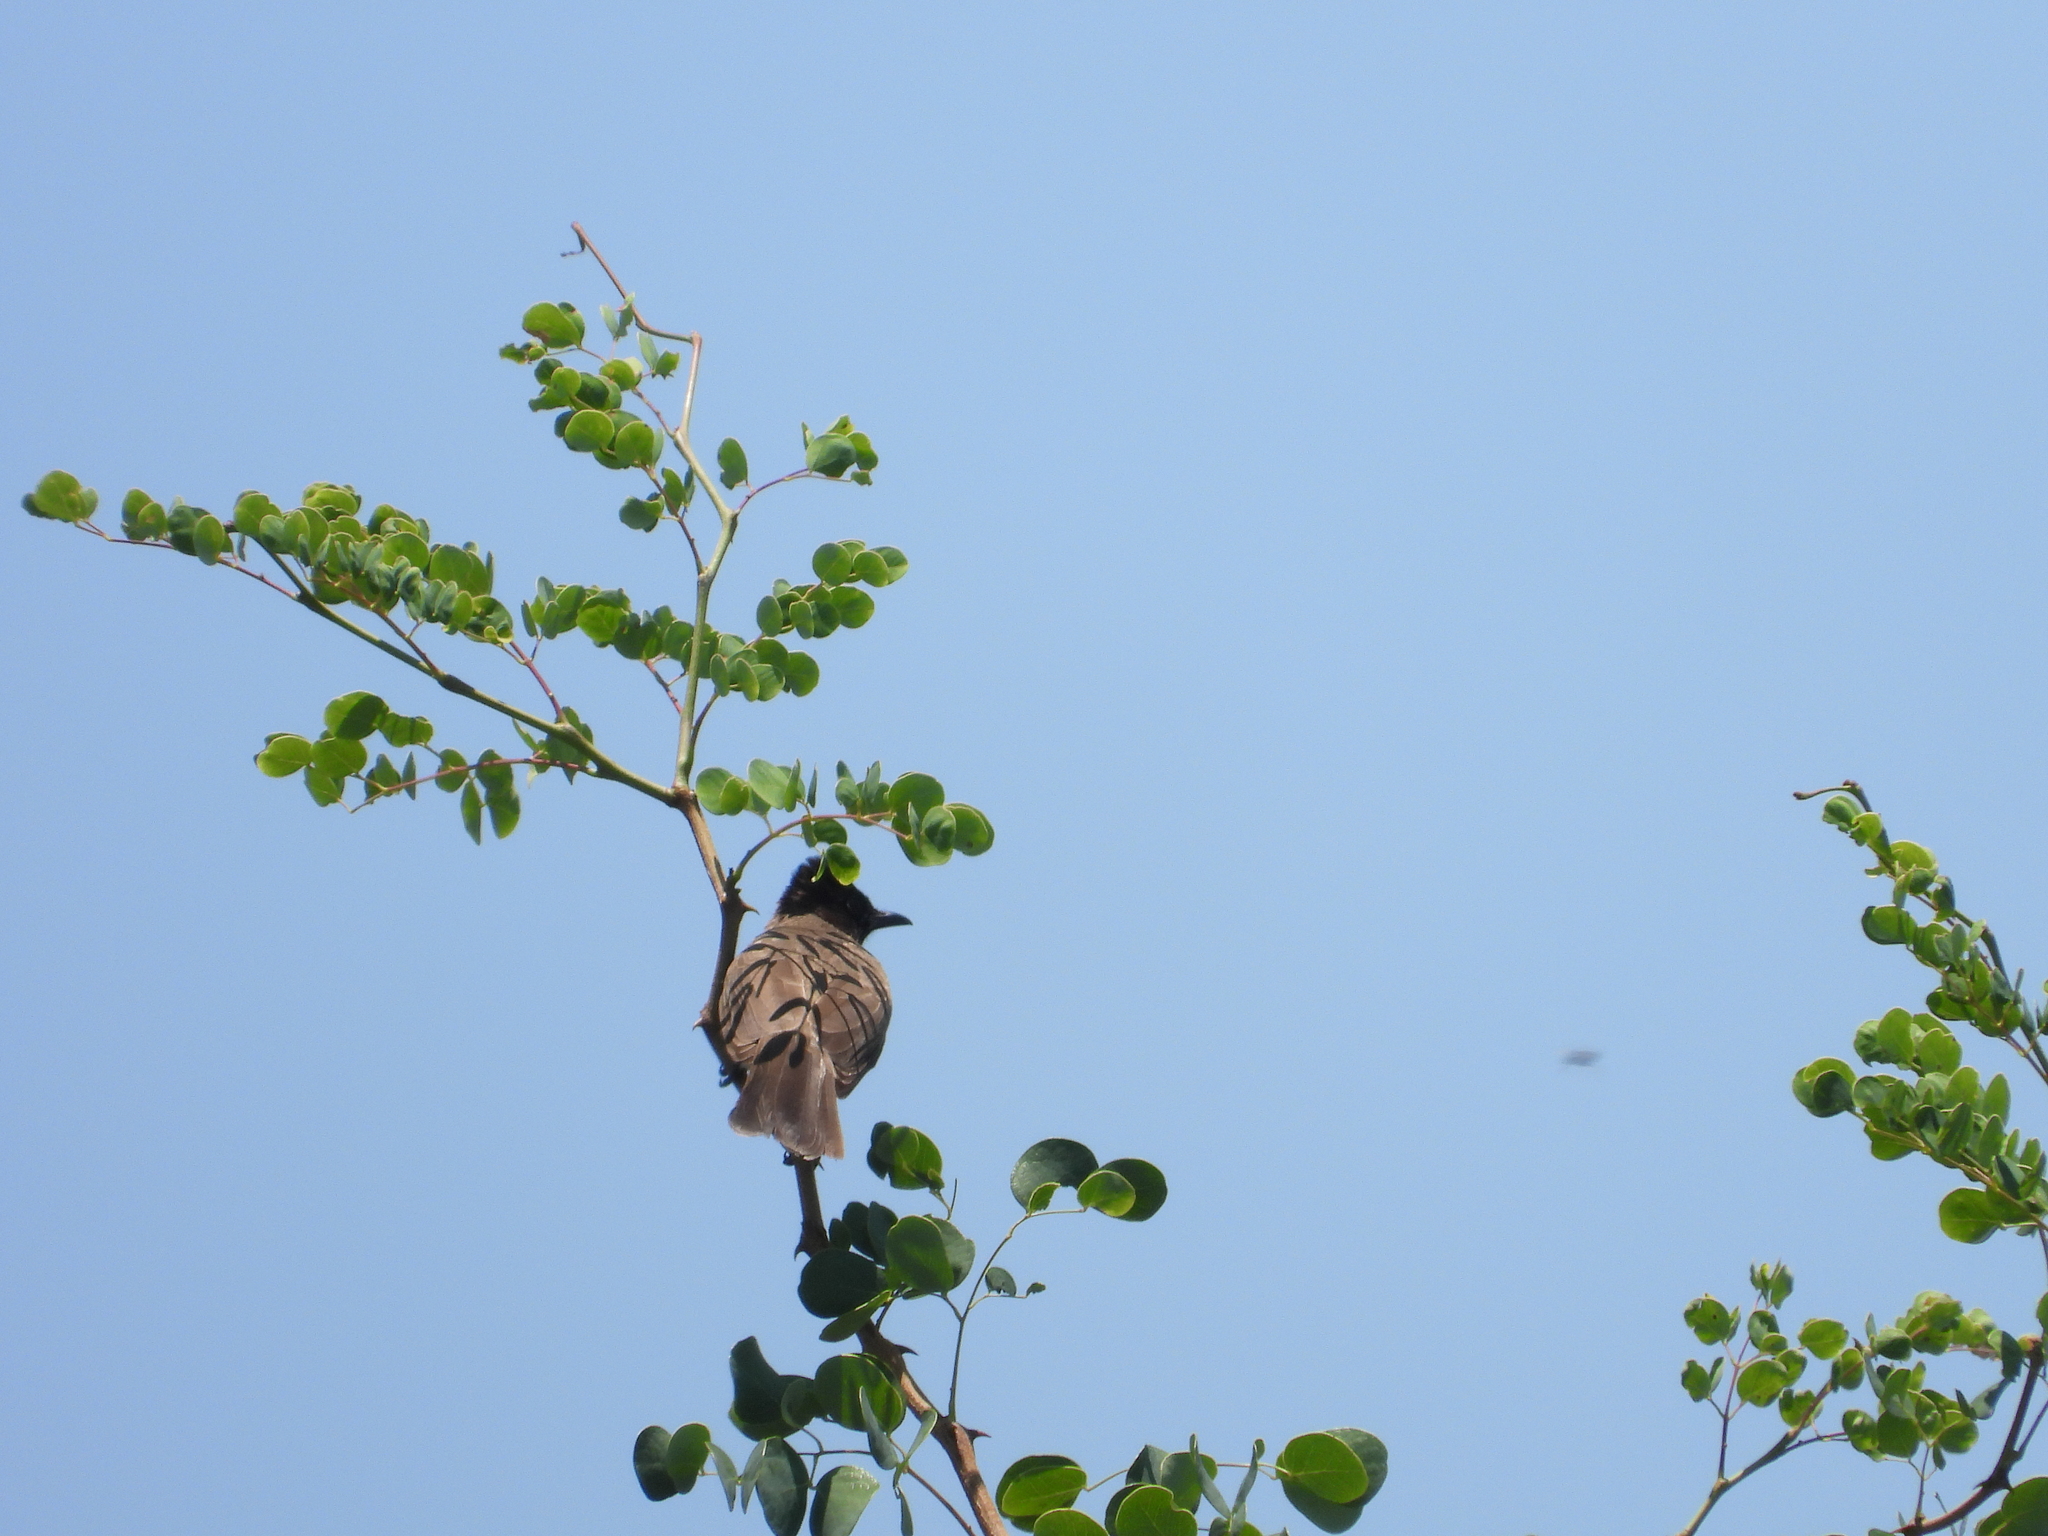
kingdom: Animalia
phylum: Chordata
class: Aves
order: Passeriformes
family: Pycnonotidae
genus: Pycnonotus
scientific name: Pycnonotus barbatus
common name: Common bulbul
